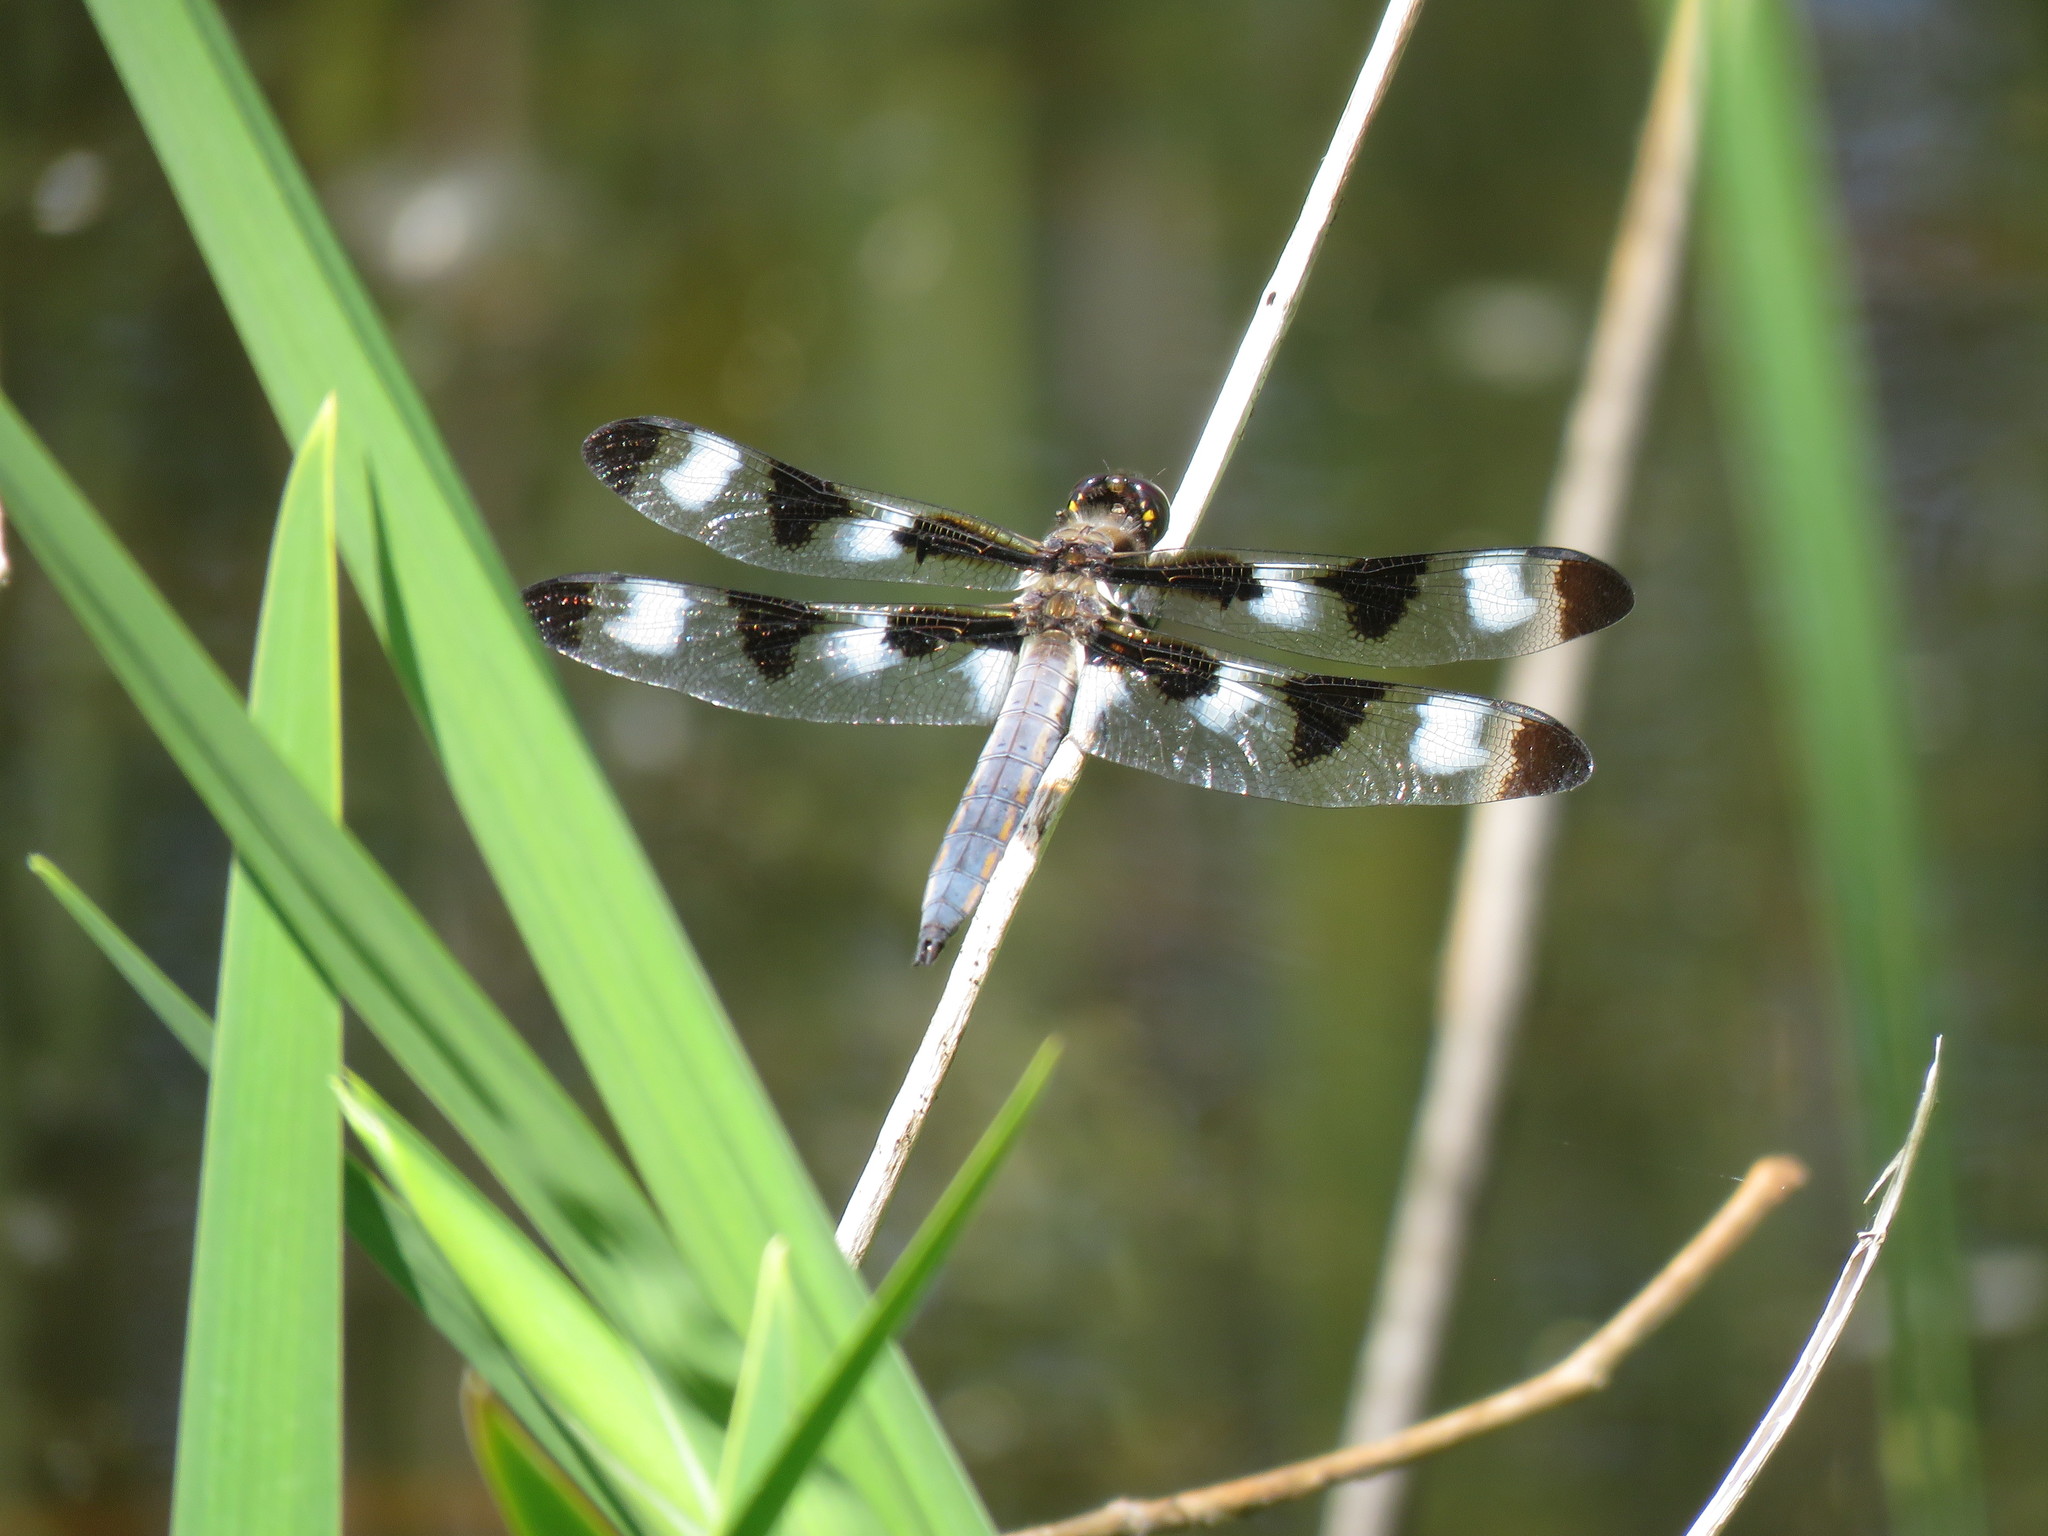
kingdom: Animalia
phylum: Arthropoda
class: Insecta
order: Odonata
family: Libellulidae
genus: Libellula
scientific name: Libellula pulchella
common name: Twelve-spotted skimmer
